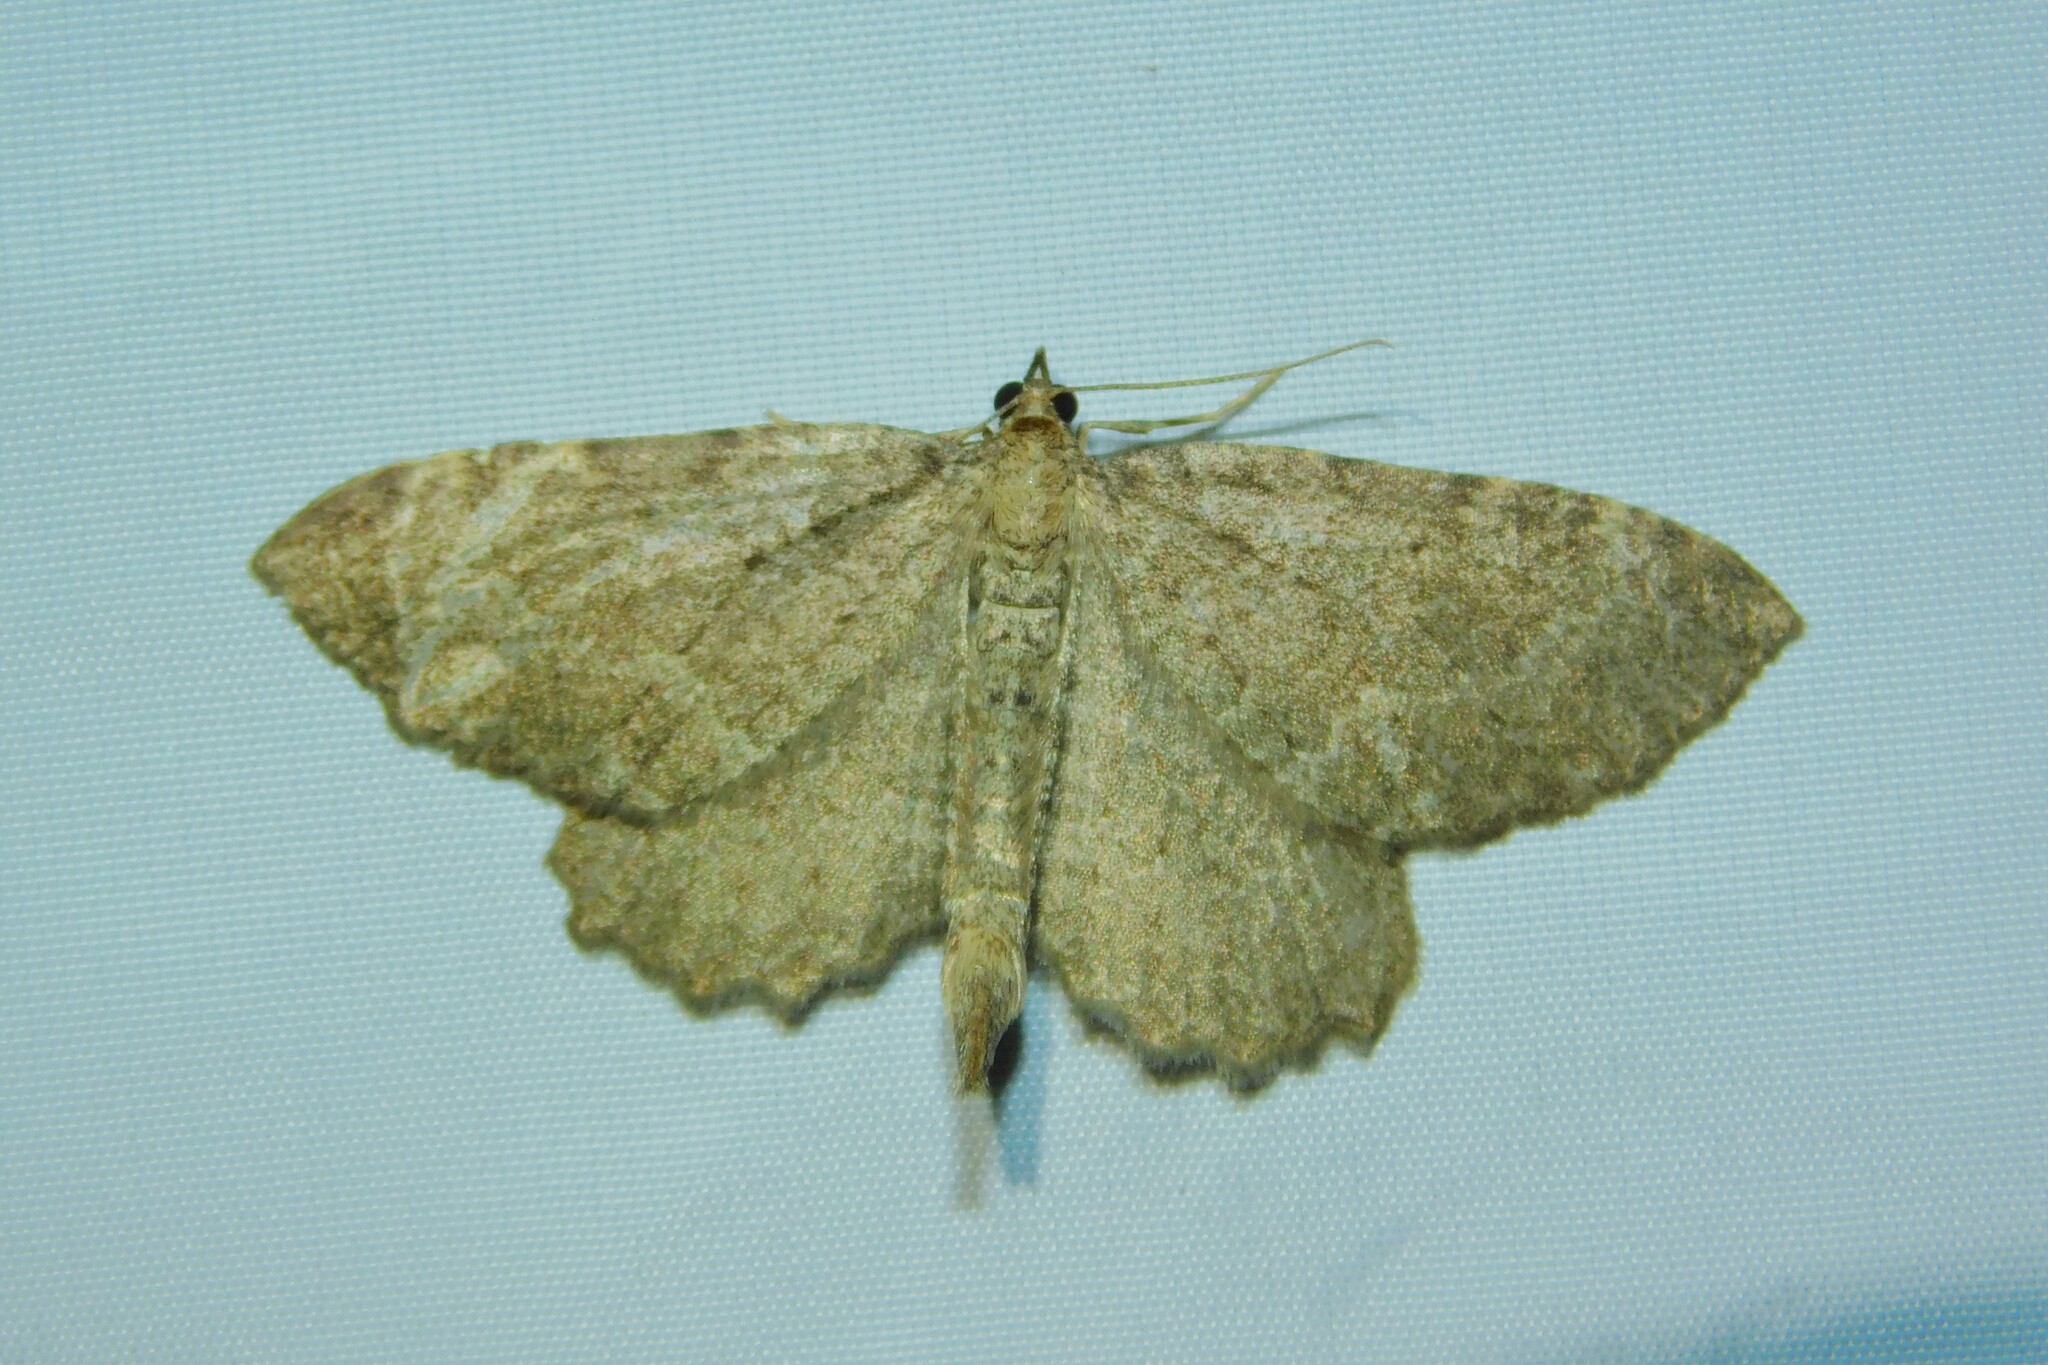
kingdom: Animalia
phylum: Arthropoda
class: Insecta
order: Lepidoptera
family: Geometridae
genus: Philereme
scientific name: Philereme vetulata
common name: Brown scallop
